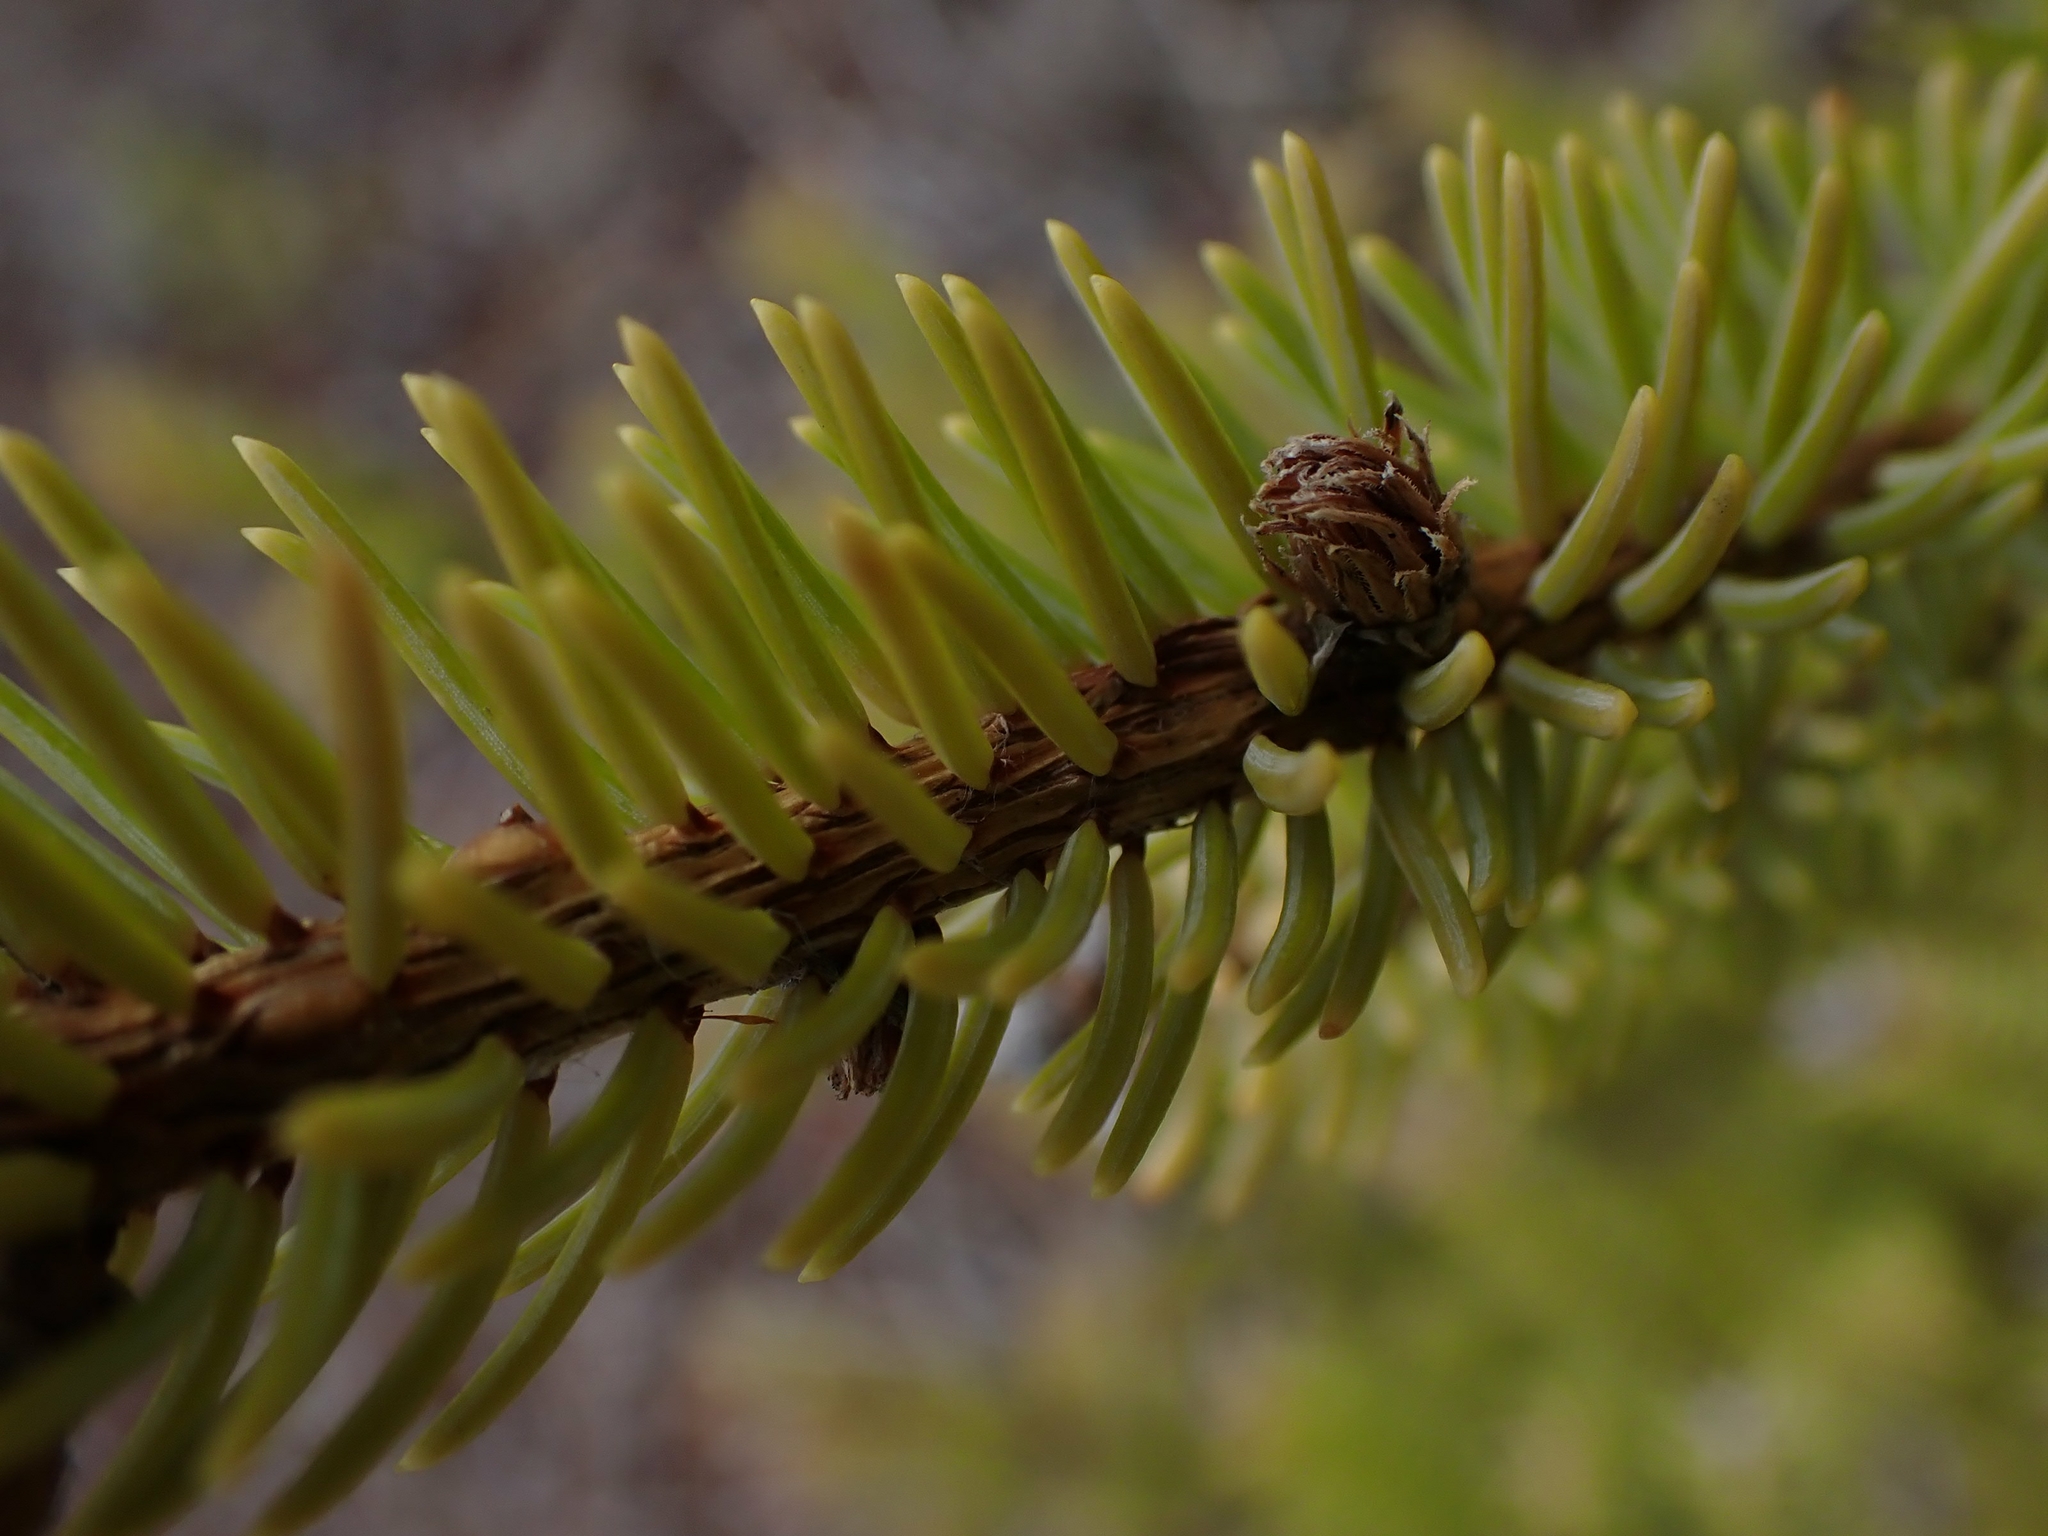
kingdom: Plantae
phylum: Tracheophyta
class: Pinopsida
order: Pinales
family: Pinaceae
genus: Picea
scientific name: Picea mariana
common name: Black spruce
